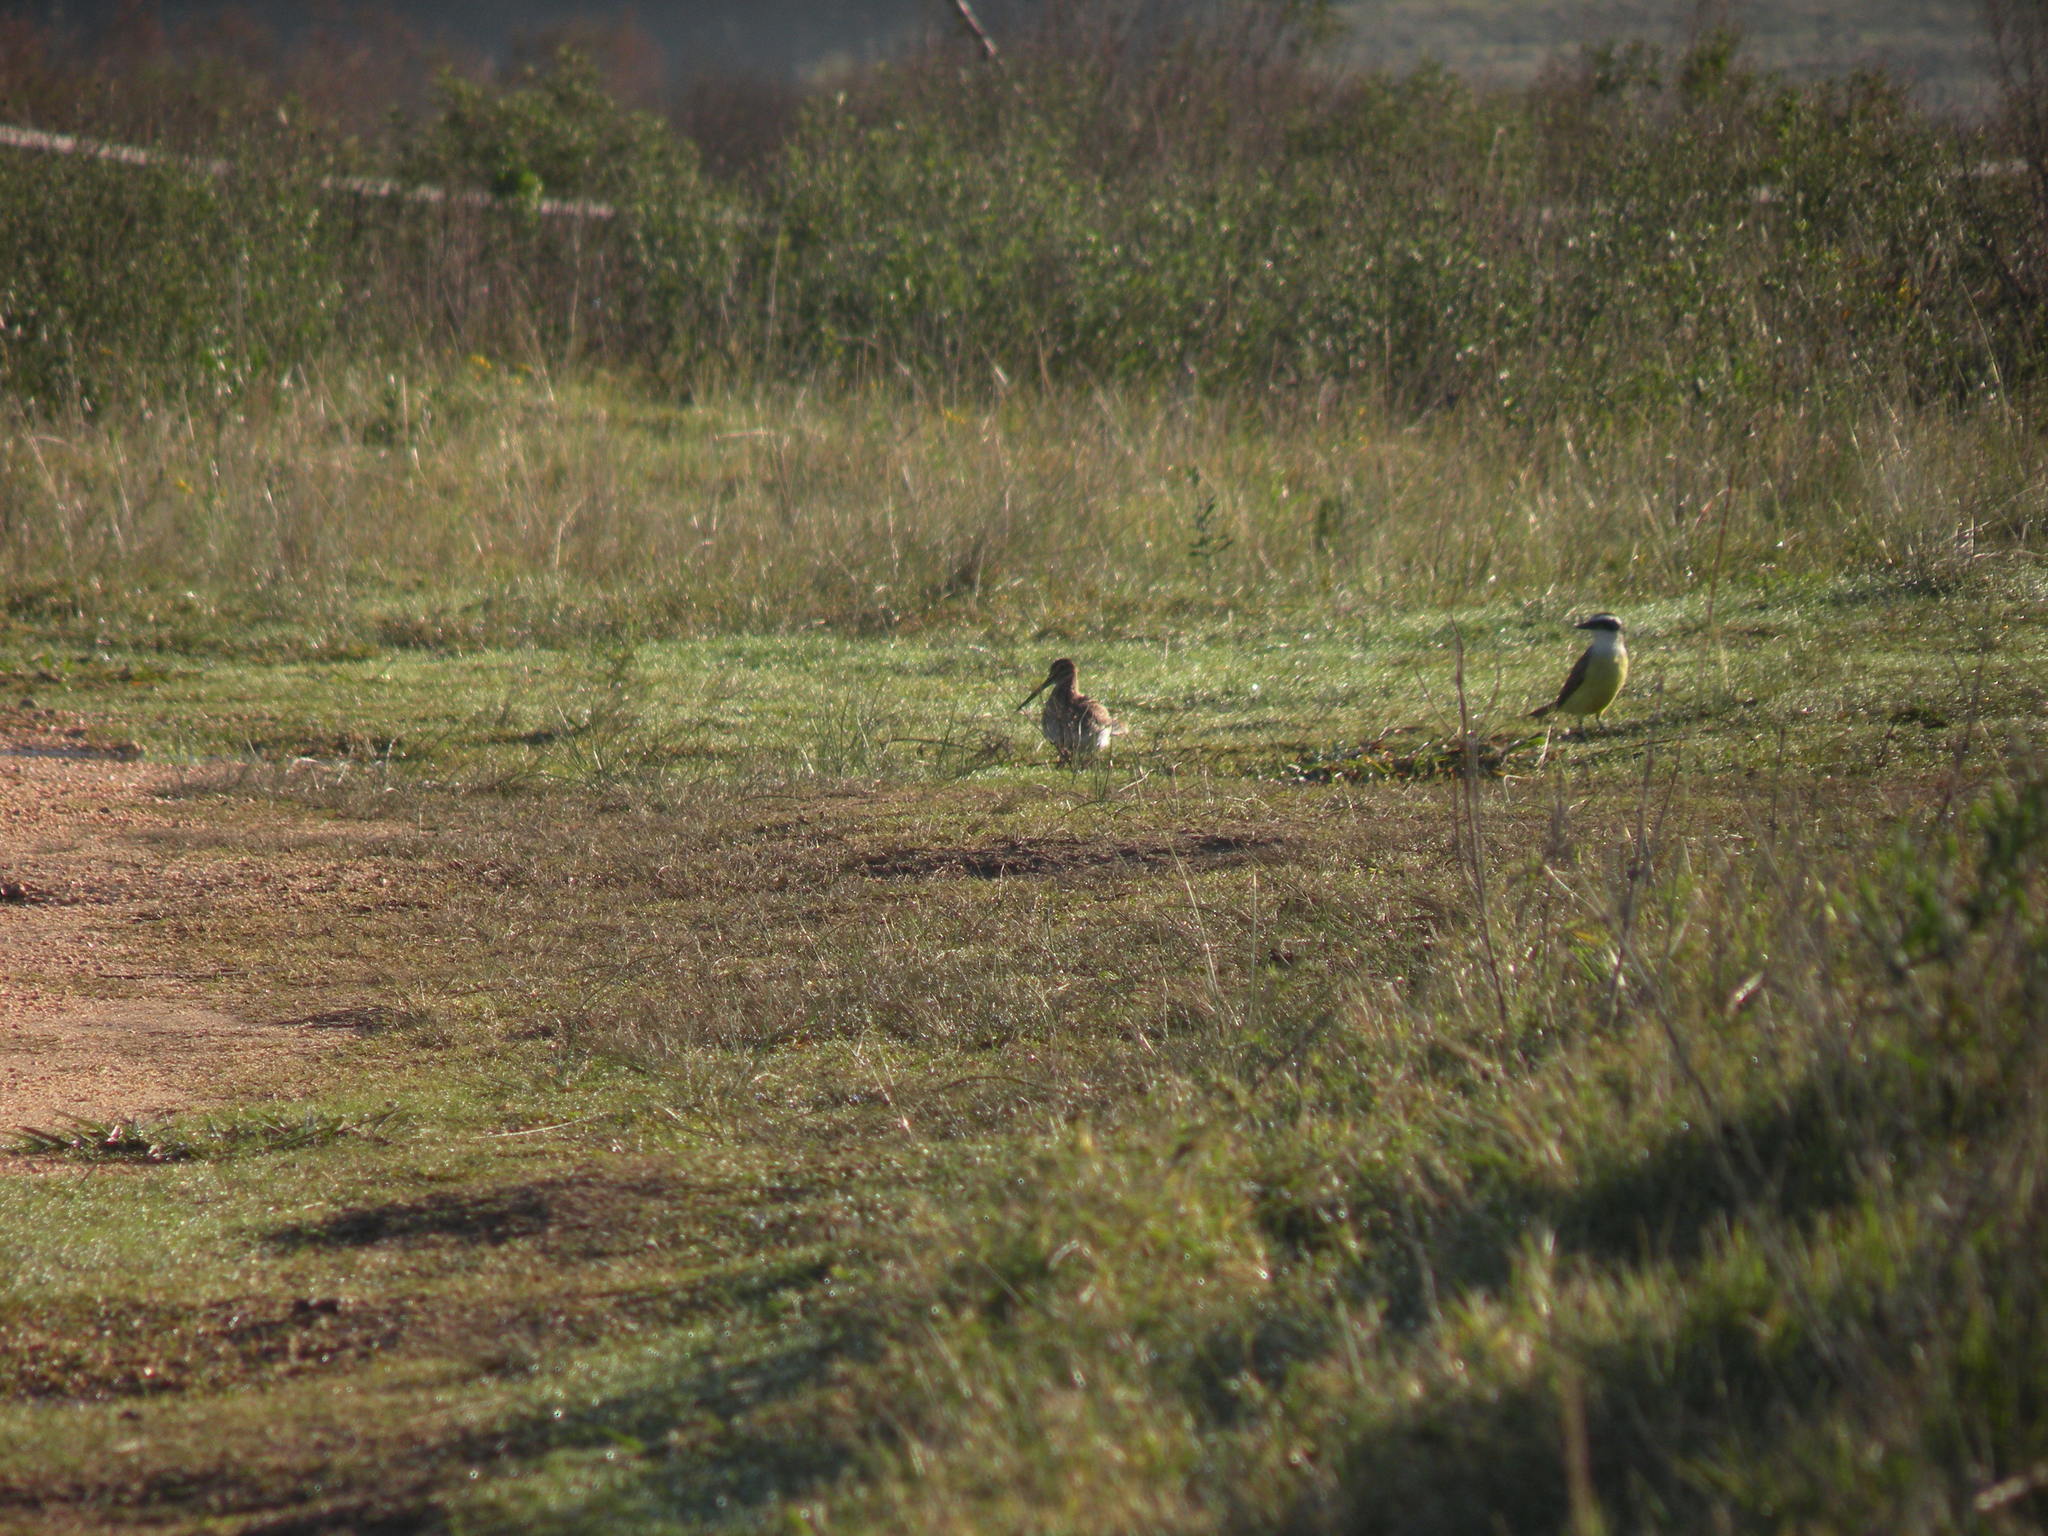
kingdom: Animalia
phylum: Chordata
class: Aves
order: Charadriiformes
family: Scolopacidae
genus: Gallinago
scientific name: Gallinago paraguaiae
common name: South american snipe
